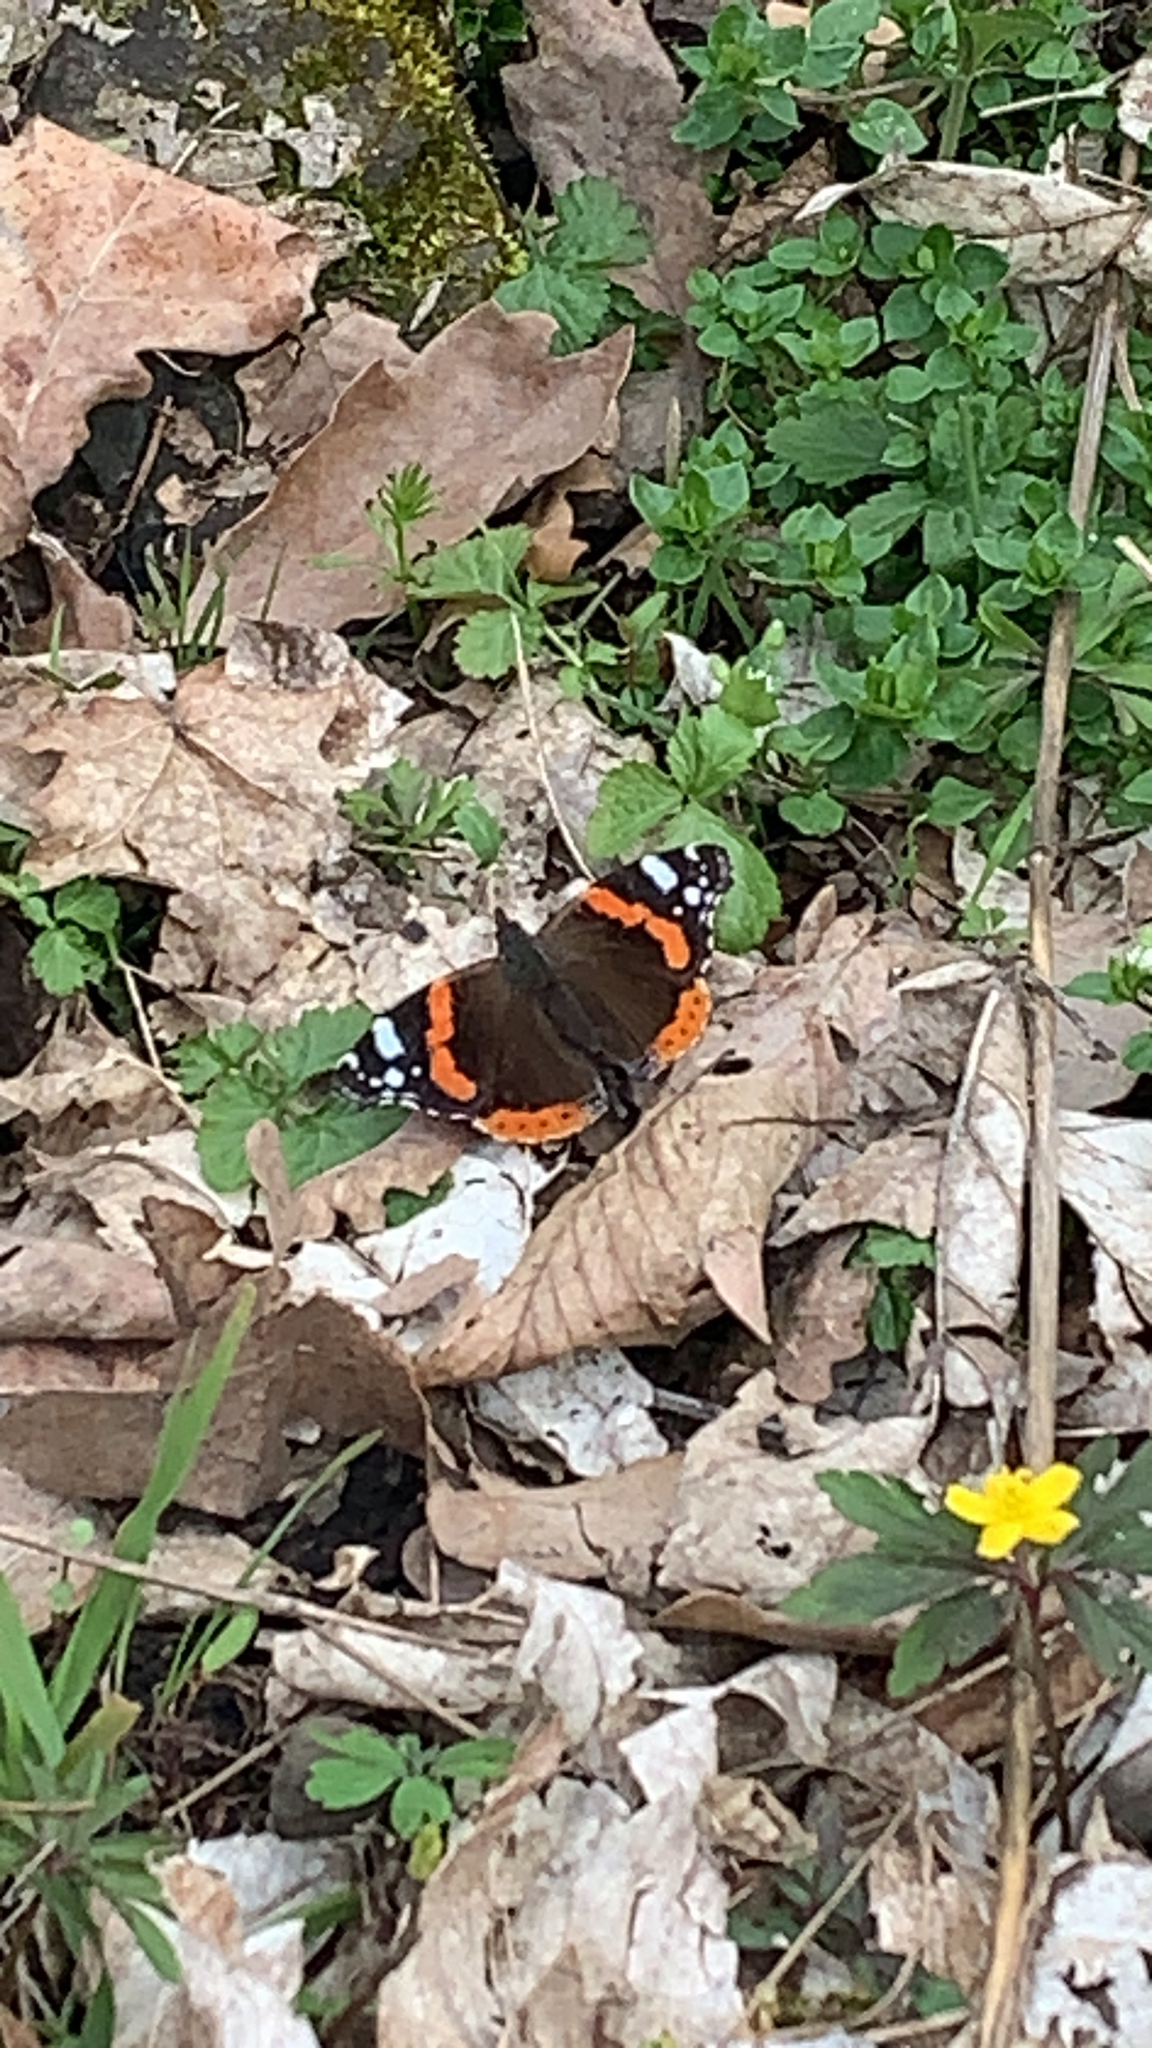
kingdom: Animalia
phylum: Arthropoda
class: Insecta
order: Lepidoptera
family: Nymphalidae
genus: Vanessa
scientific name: Vanessa atalanta
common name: Red admiral
